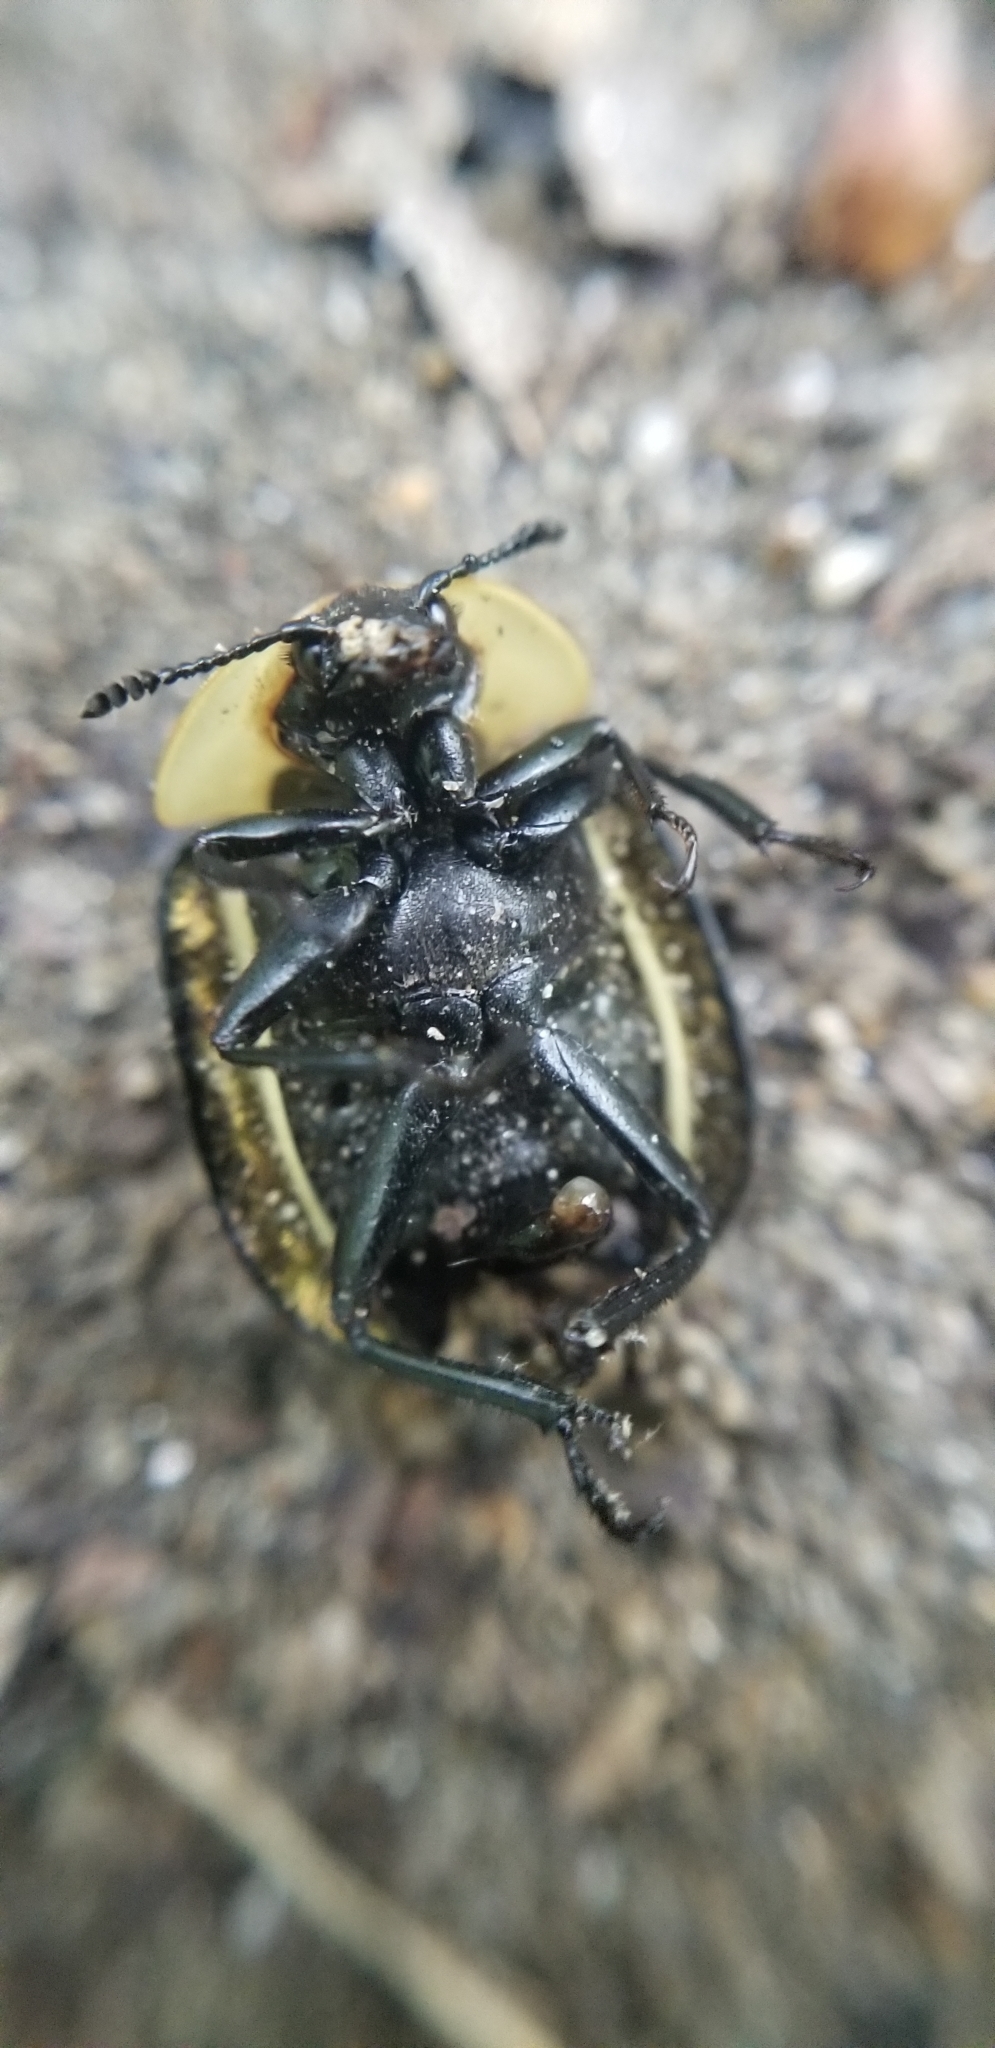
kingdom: Animalia
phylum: Arthropoda
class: Insecta
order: Coleoptera
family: Staphylinidae
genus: Necrophila
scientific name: Necrophila americana
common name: American carrion beetle
